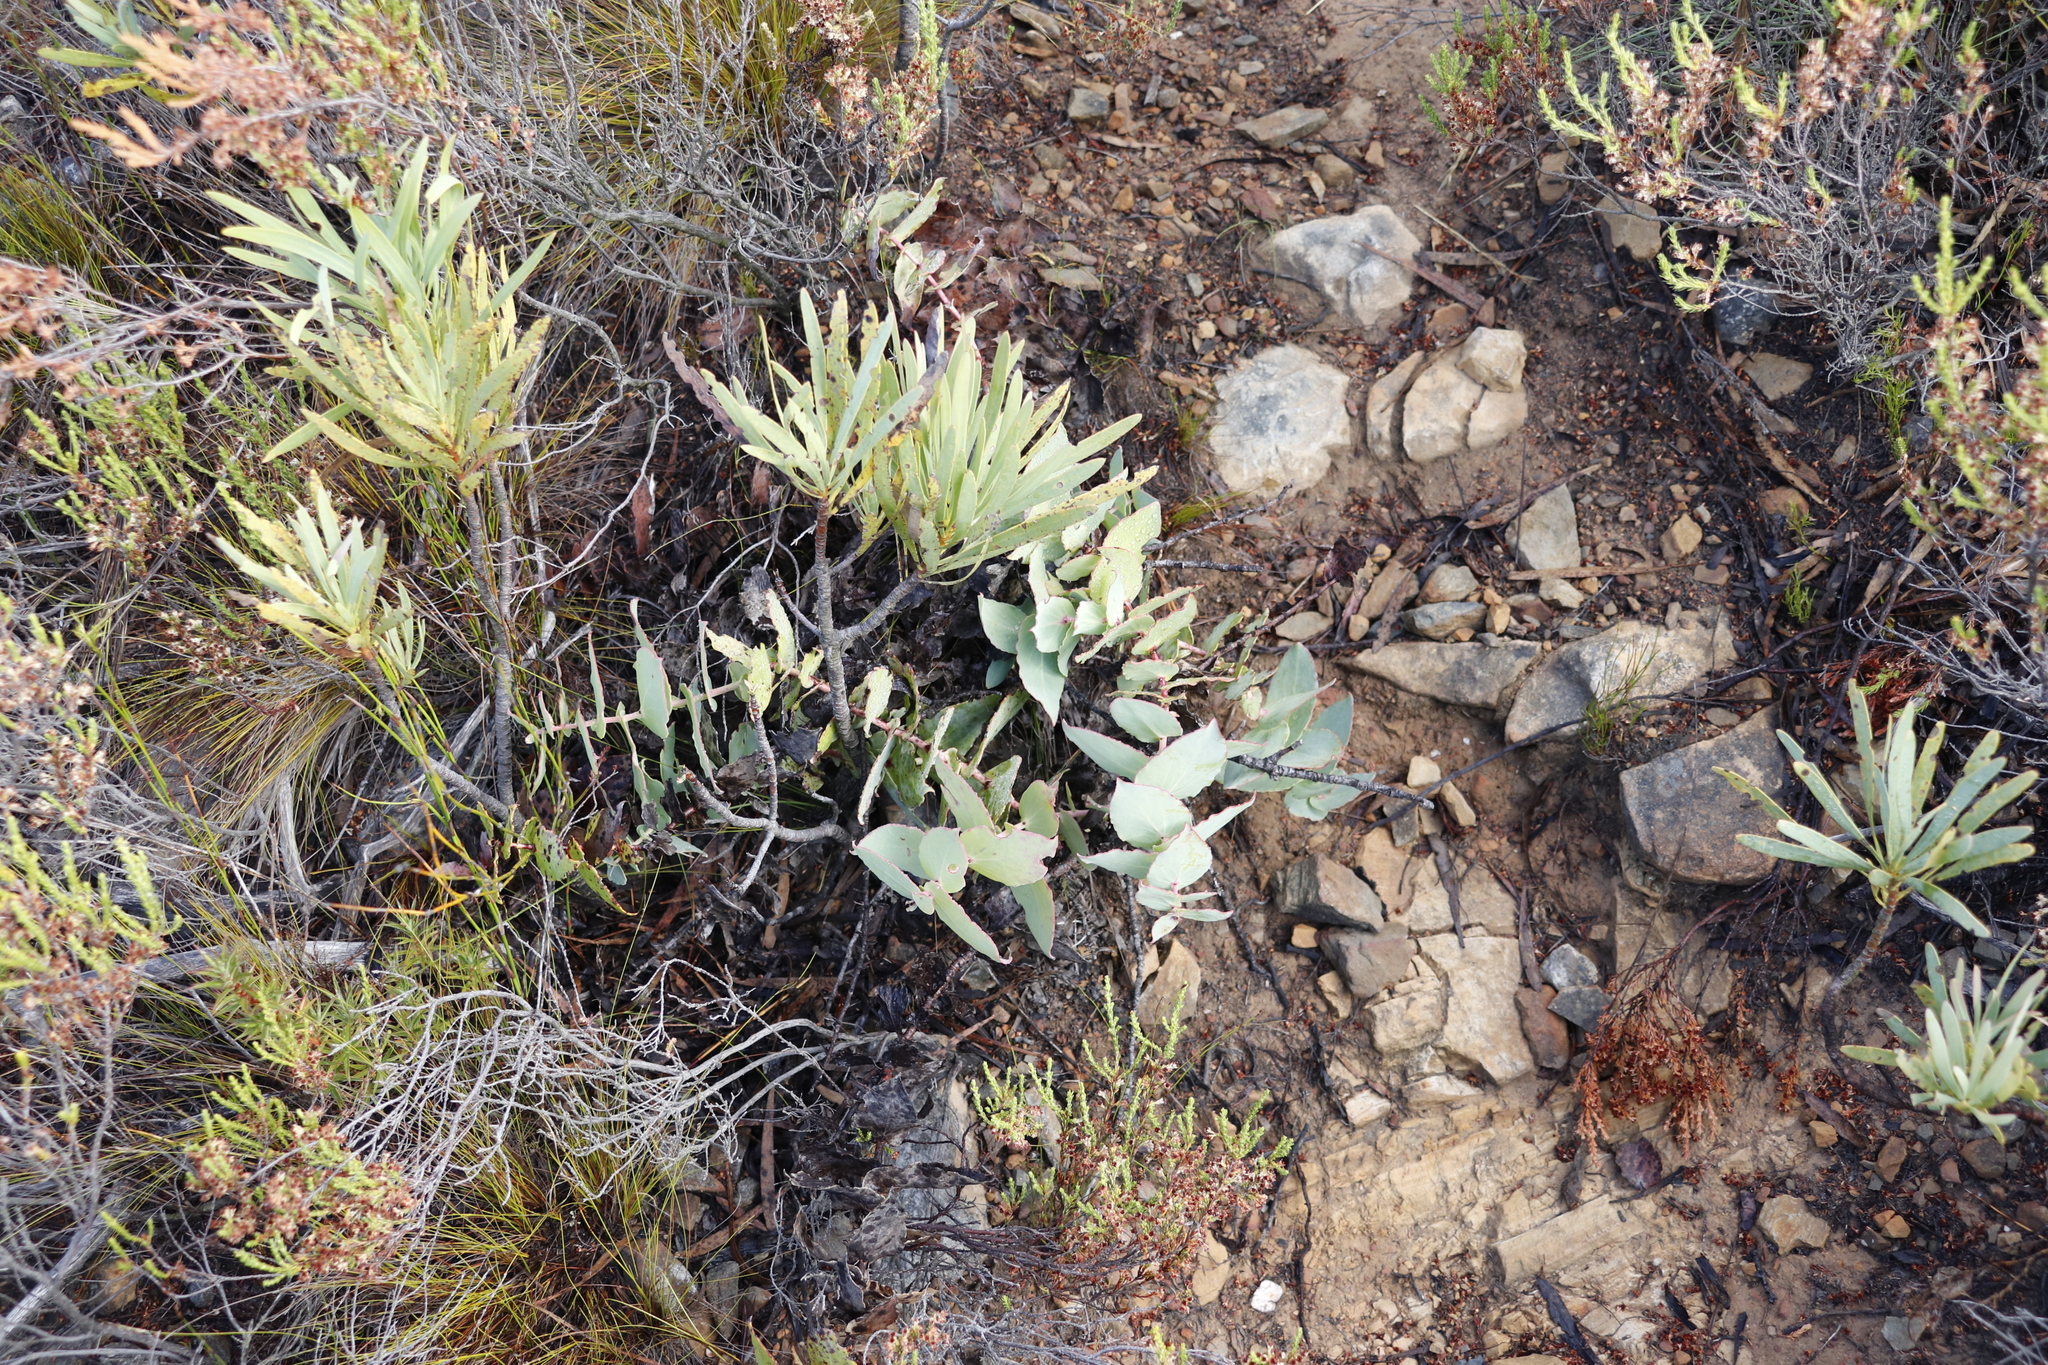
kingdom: Plantae
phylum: Tracheophyta
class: Magnoliopsida
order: Proteales
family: Proteaceae
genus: Protea
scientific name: Protea repens
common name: Sugarbush
